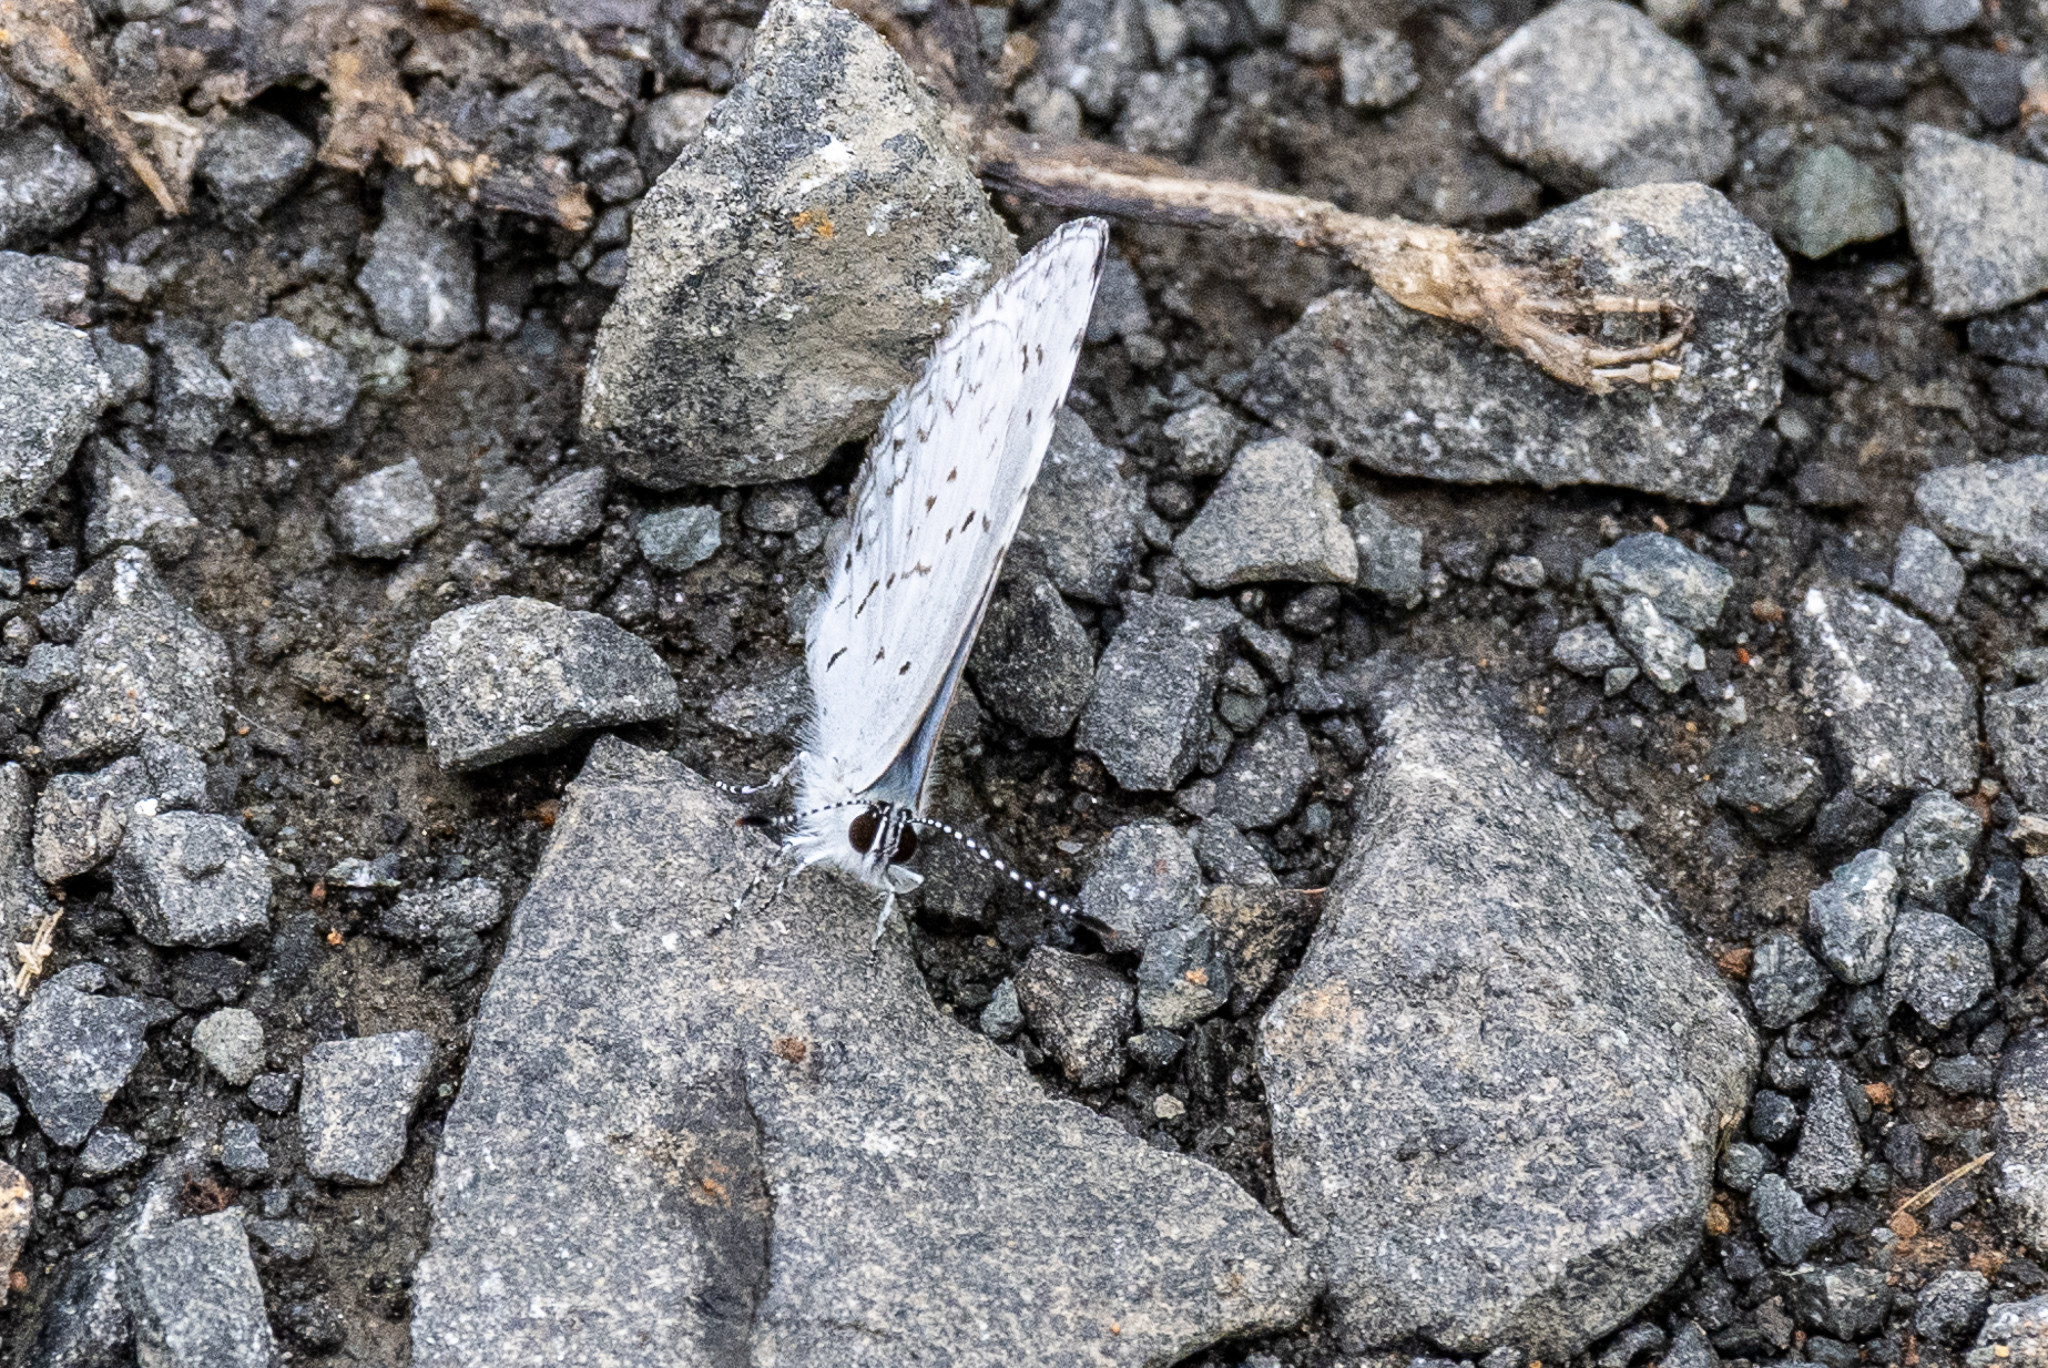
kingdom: Animalia
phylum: Arthropoda
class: Insecta
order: Lepidoptera
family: Lycaenidae
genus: Cyaniris
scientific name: Cyaniris neglecta
